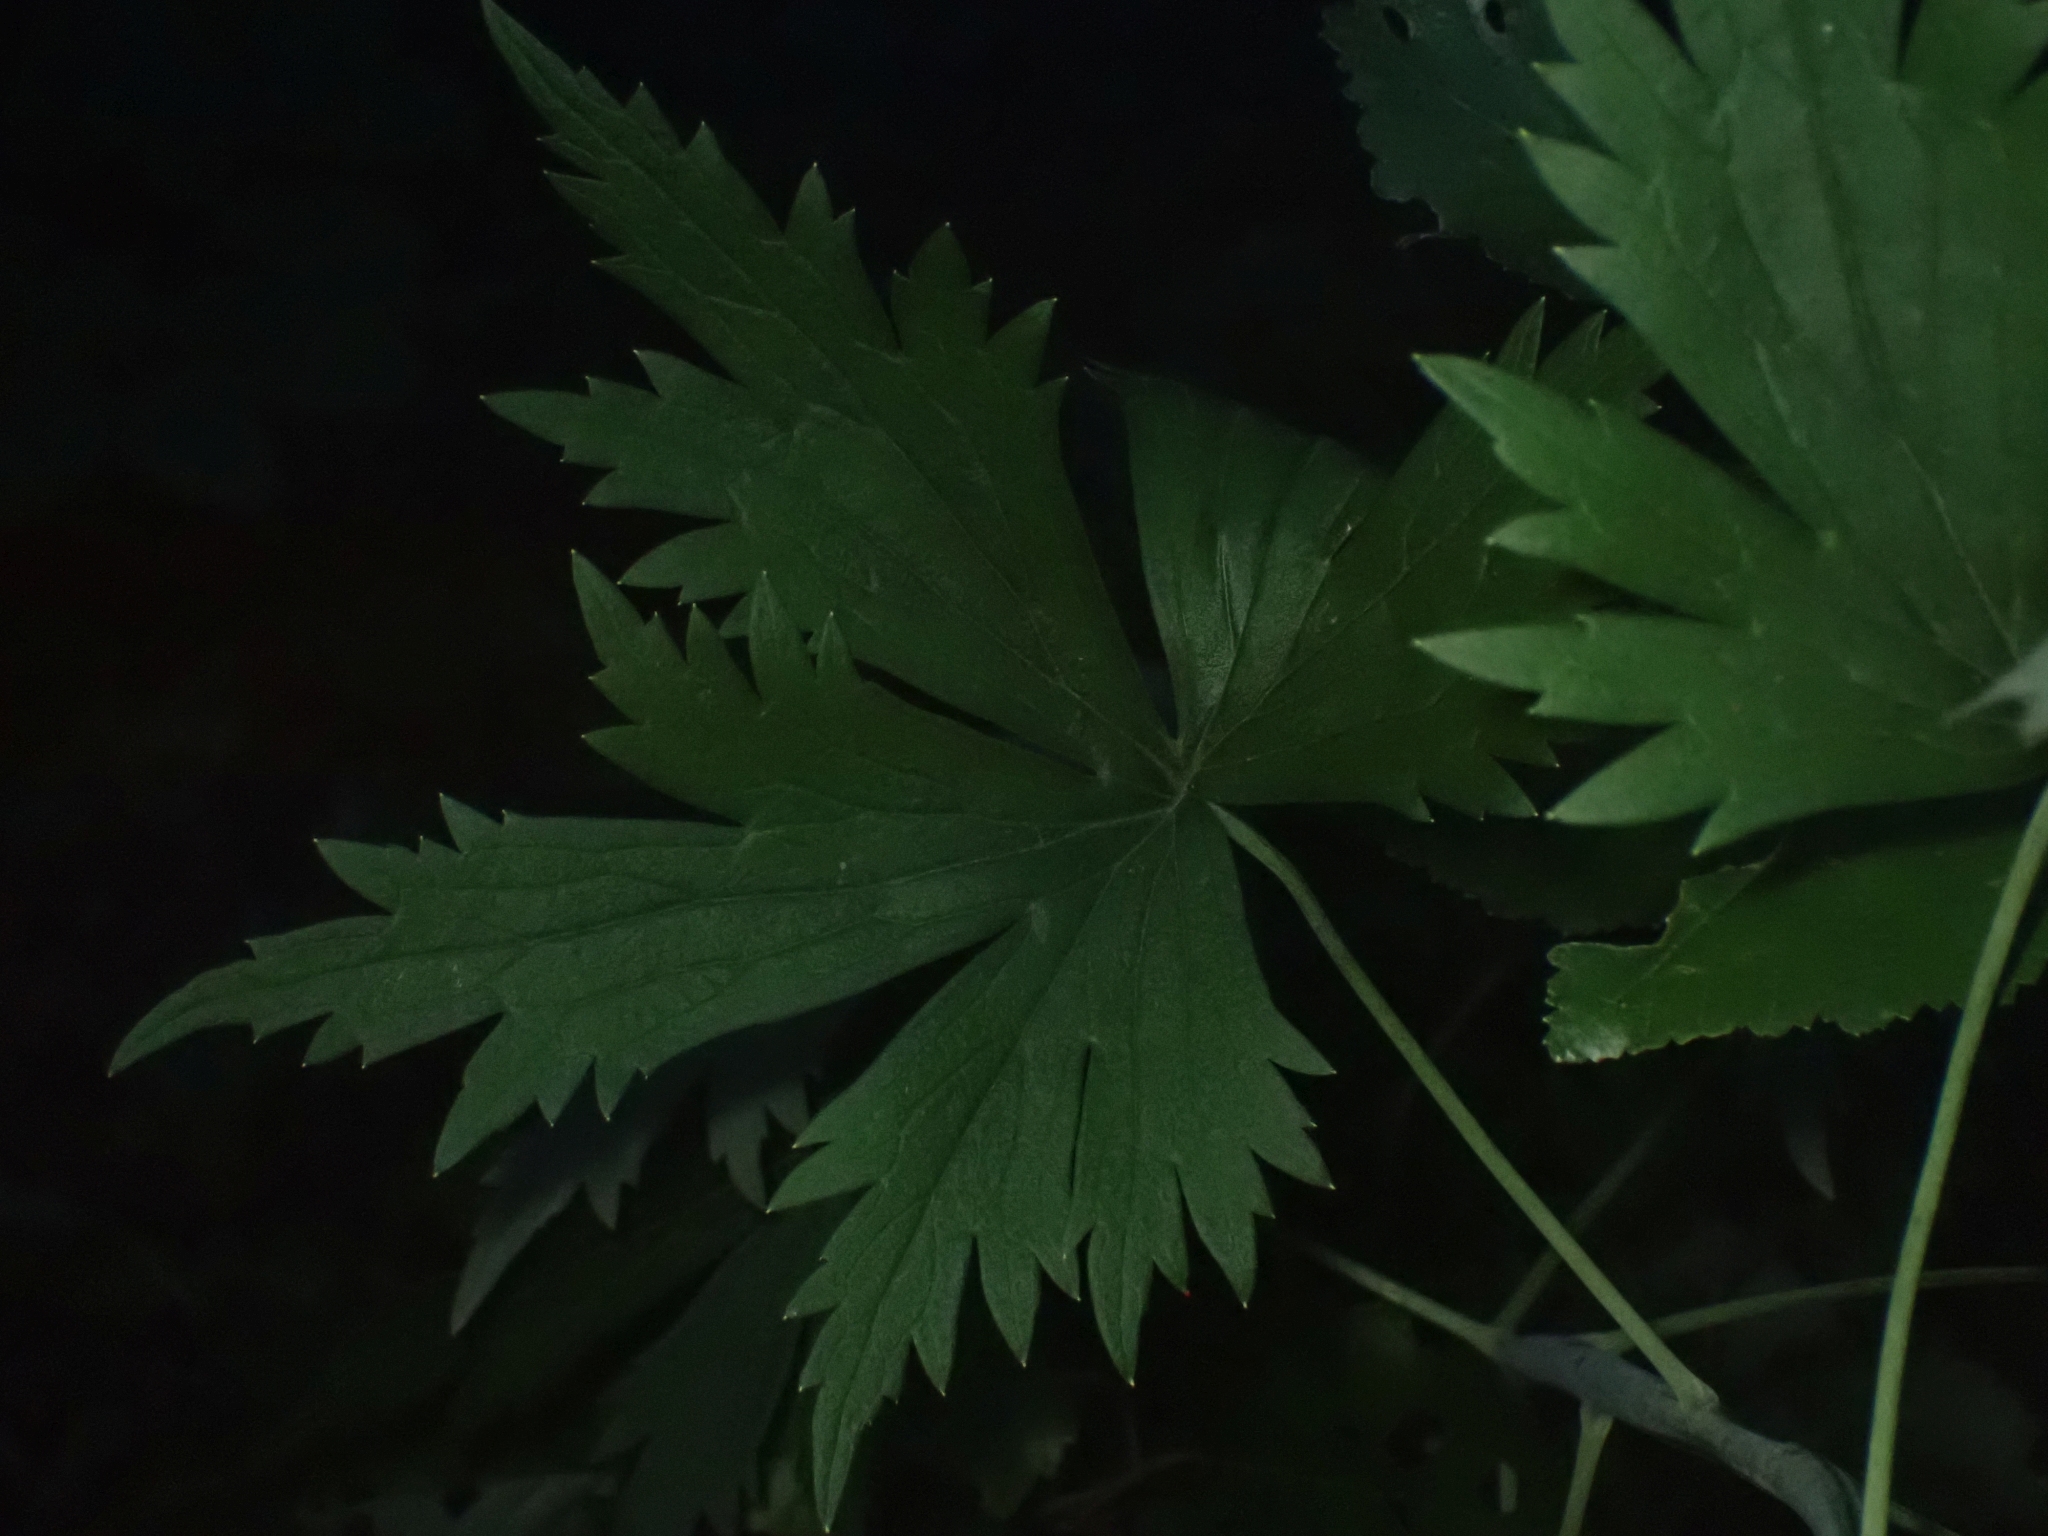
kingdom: Plantae
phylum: Tracheophyta
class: Magnoliopsida
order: Ranunculales
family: Ranunculaceae
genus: Delphinium
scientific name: Delphinium glaucum
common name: Brown's larkspur
